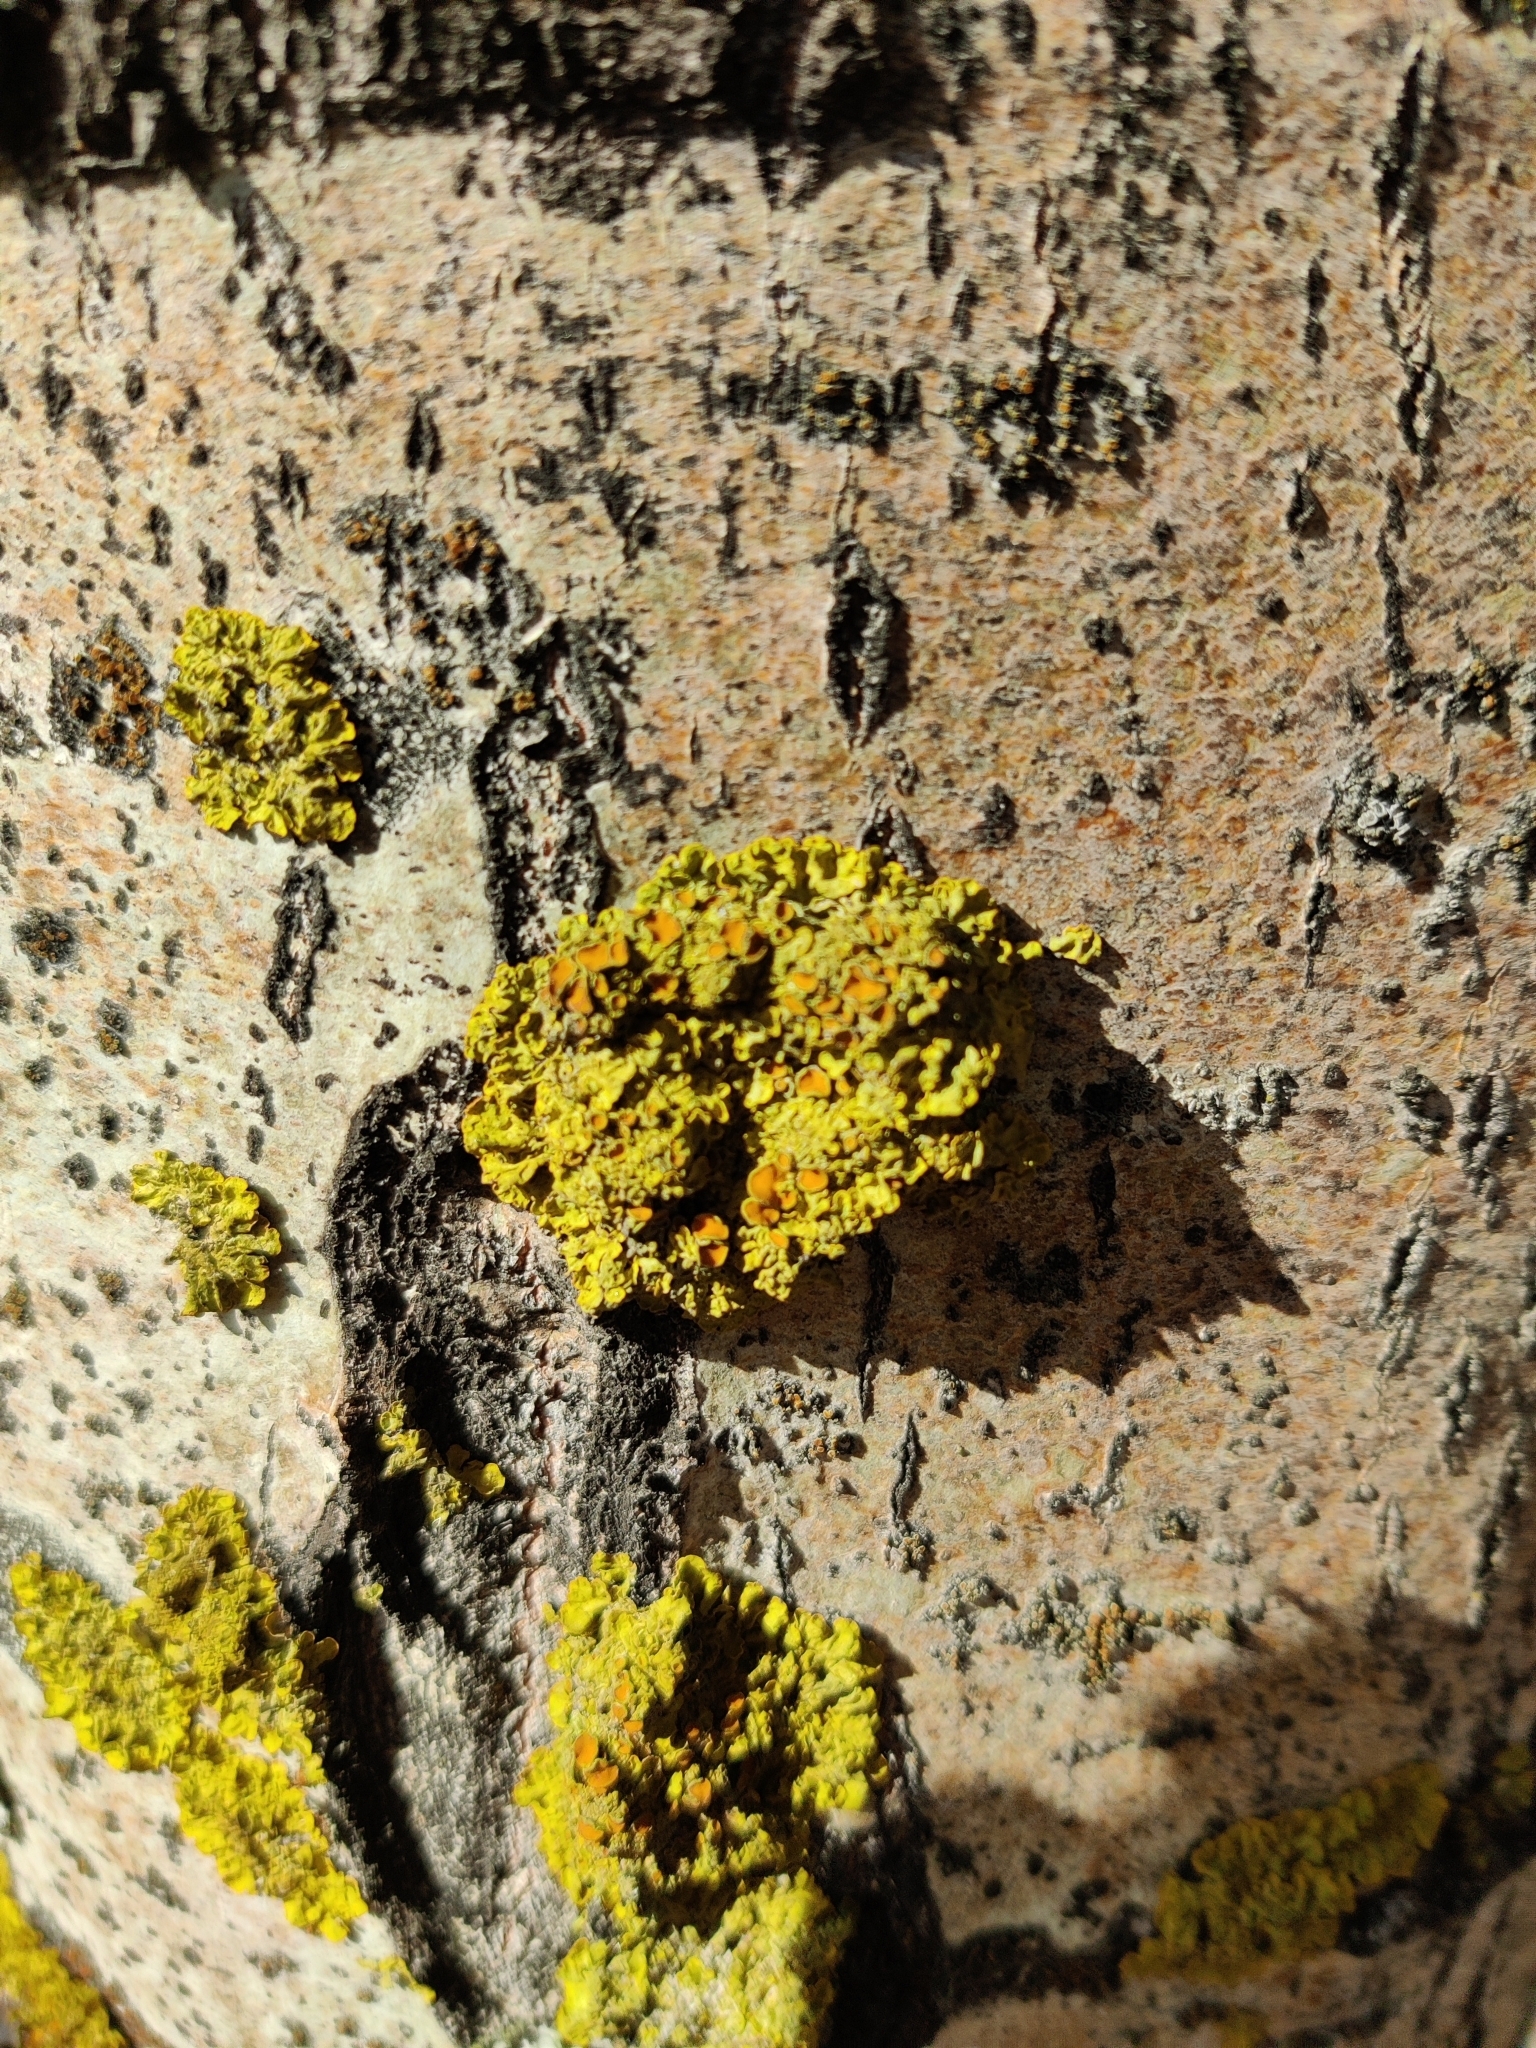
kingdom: Fungi
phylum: Ascomycota
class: Lecanoromycetes
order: Teloschistales
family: Teloschistaceae
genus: Xanthoria
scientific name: Xanthoria parietina
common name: Common orange lichen
